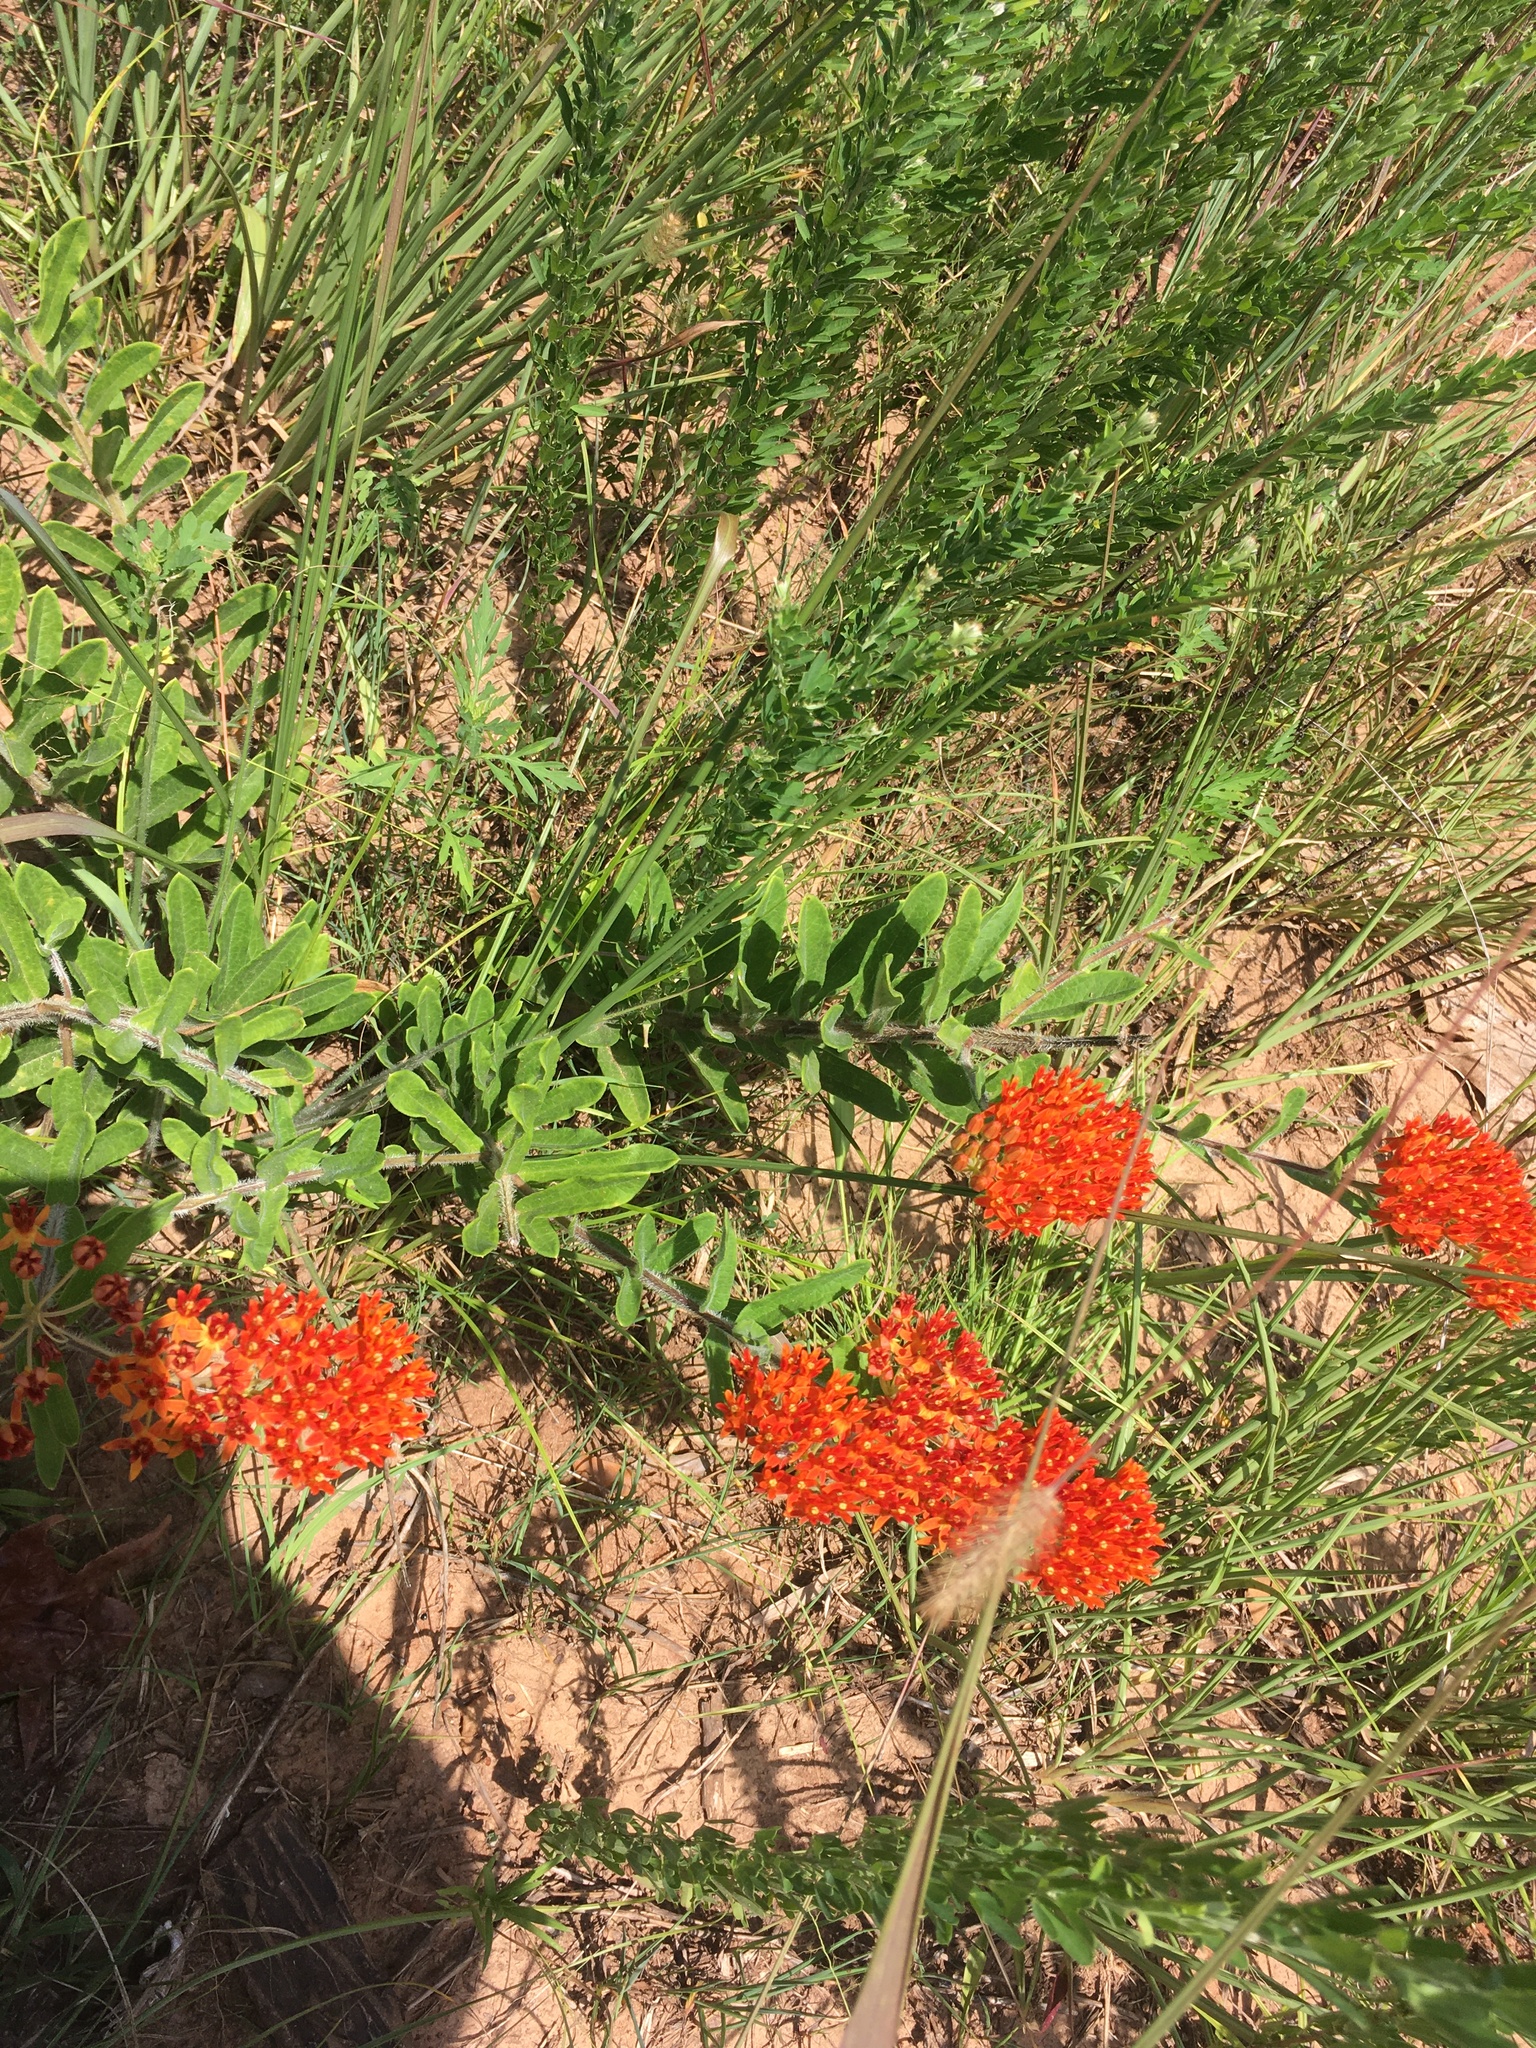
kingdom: Plantae
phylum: Tracheophyta
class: Magnoliopsida
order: Gentianales
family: Apocynaceae
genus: Asclepias
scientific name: Asclepias tuberosa
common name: Butterfly milkweed
